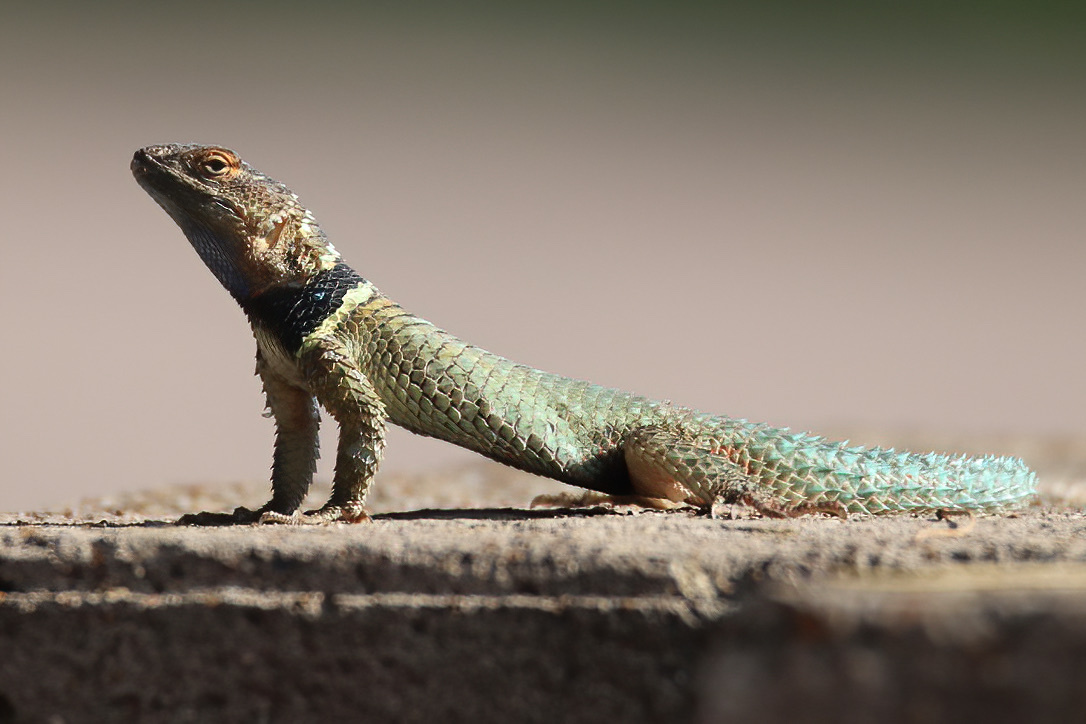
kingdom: Animalia
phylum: Chordata
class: Squamata
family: Phrynosomatidae
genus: Sceloporus
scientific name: Sceloporus cyanogenys
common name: Blue spiny lizard
